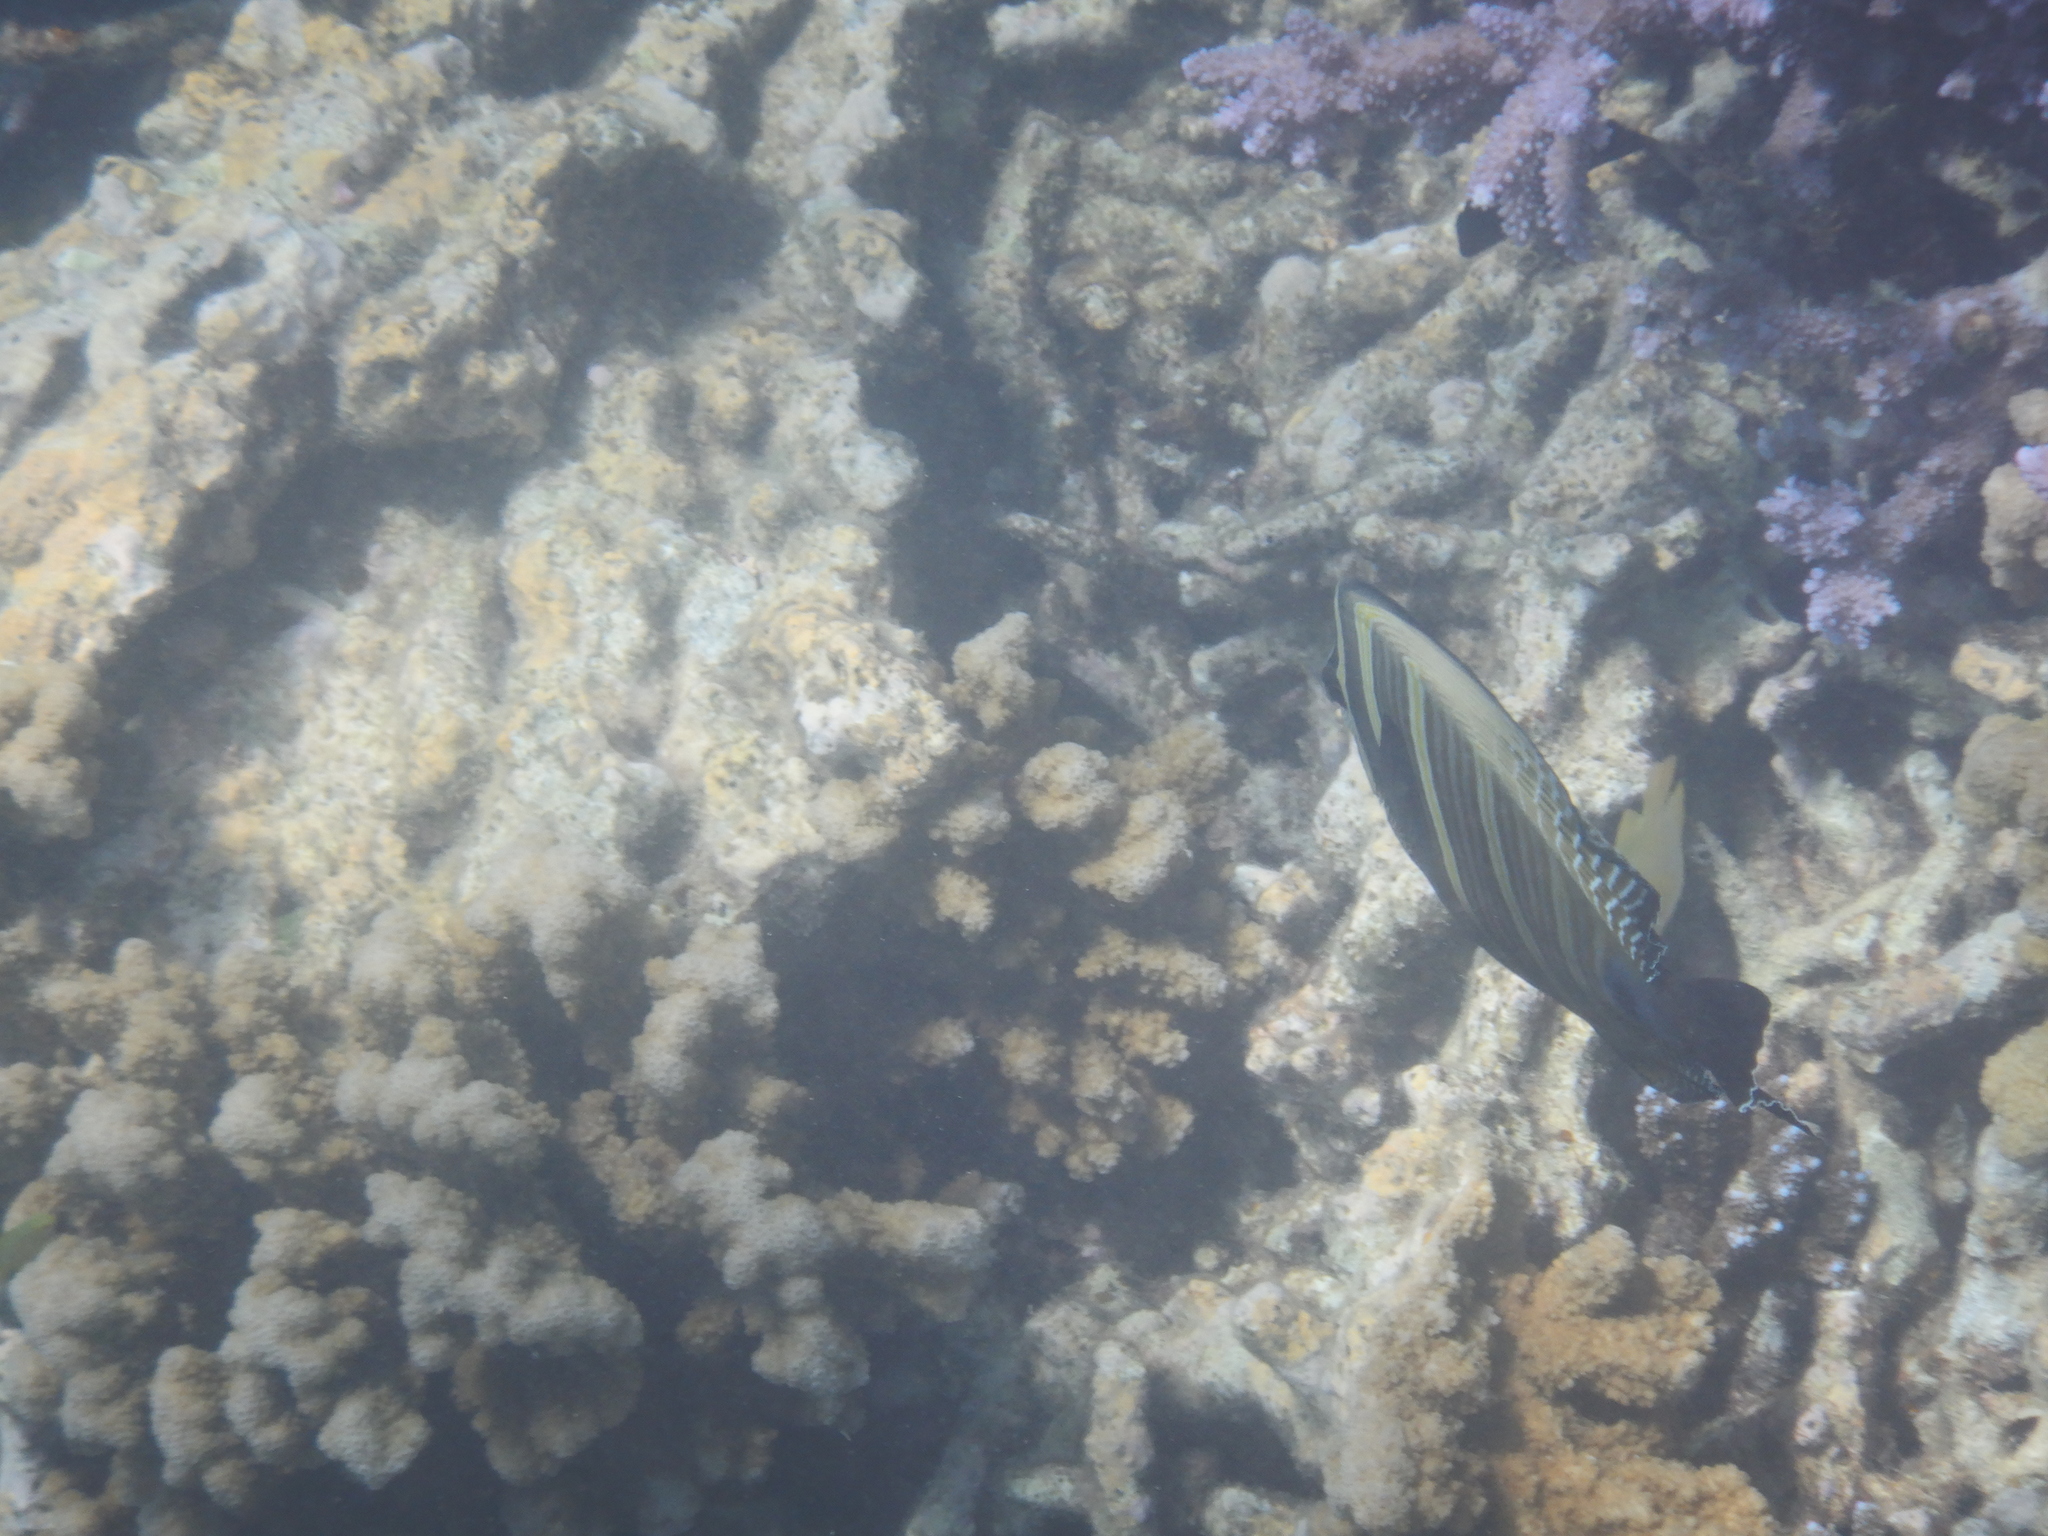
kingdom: Animalia
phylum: Chordata
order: Perciformes
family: Acanthuridae
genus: Zebrasoma
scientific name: Zebrasoma veliferum
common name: Sailfin surgeonfish
